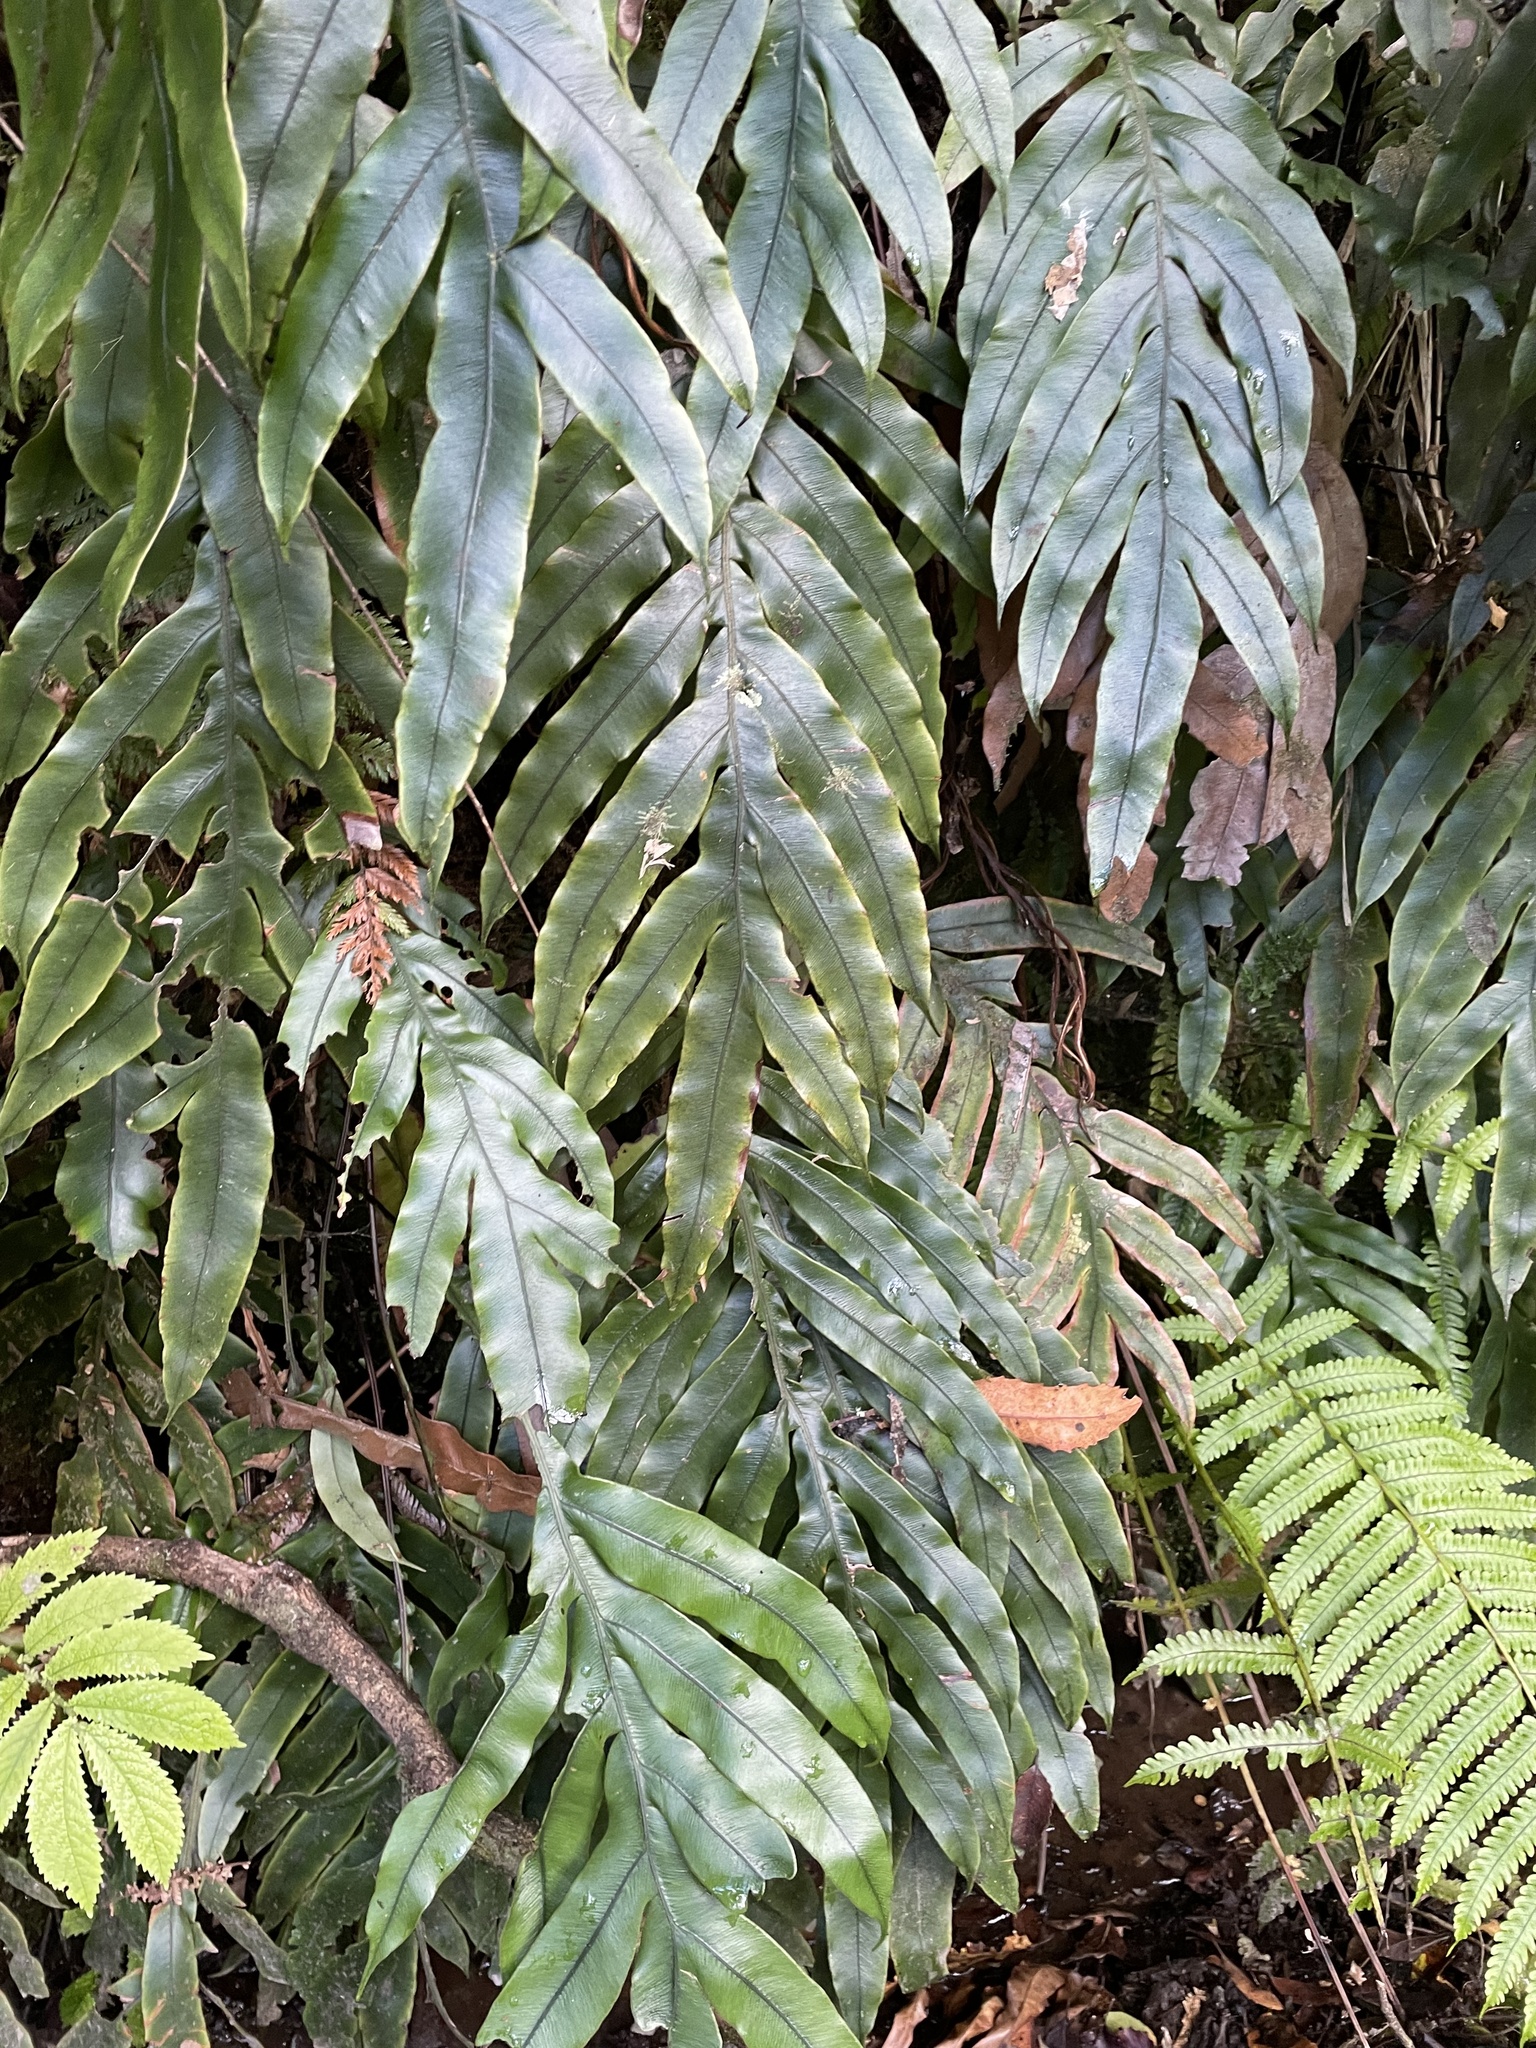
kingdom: Plantae
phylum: Tracheophyta
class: Polypodiopsida
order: Polypodiales
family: Blechnaceae
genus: Austroblechnum
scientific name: Austroblechnum colensoi
